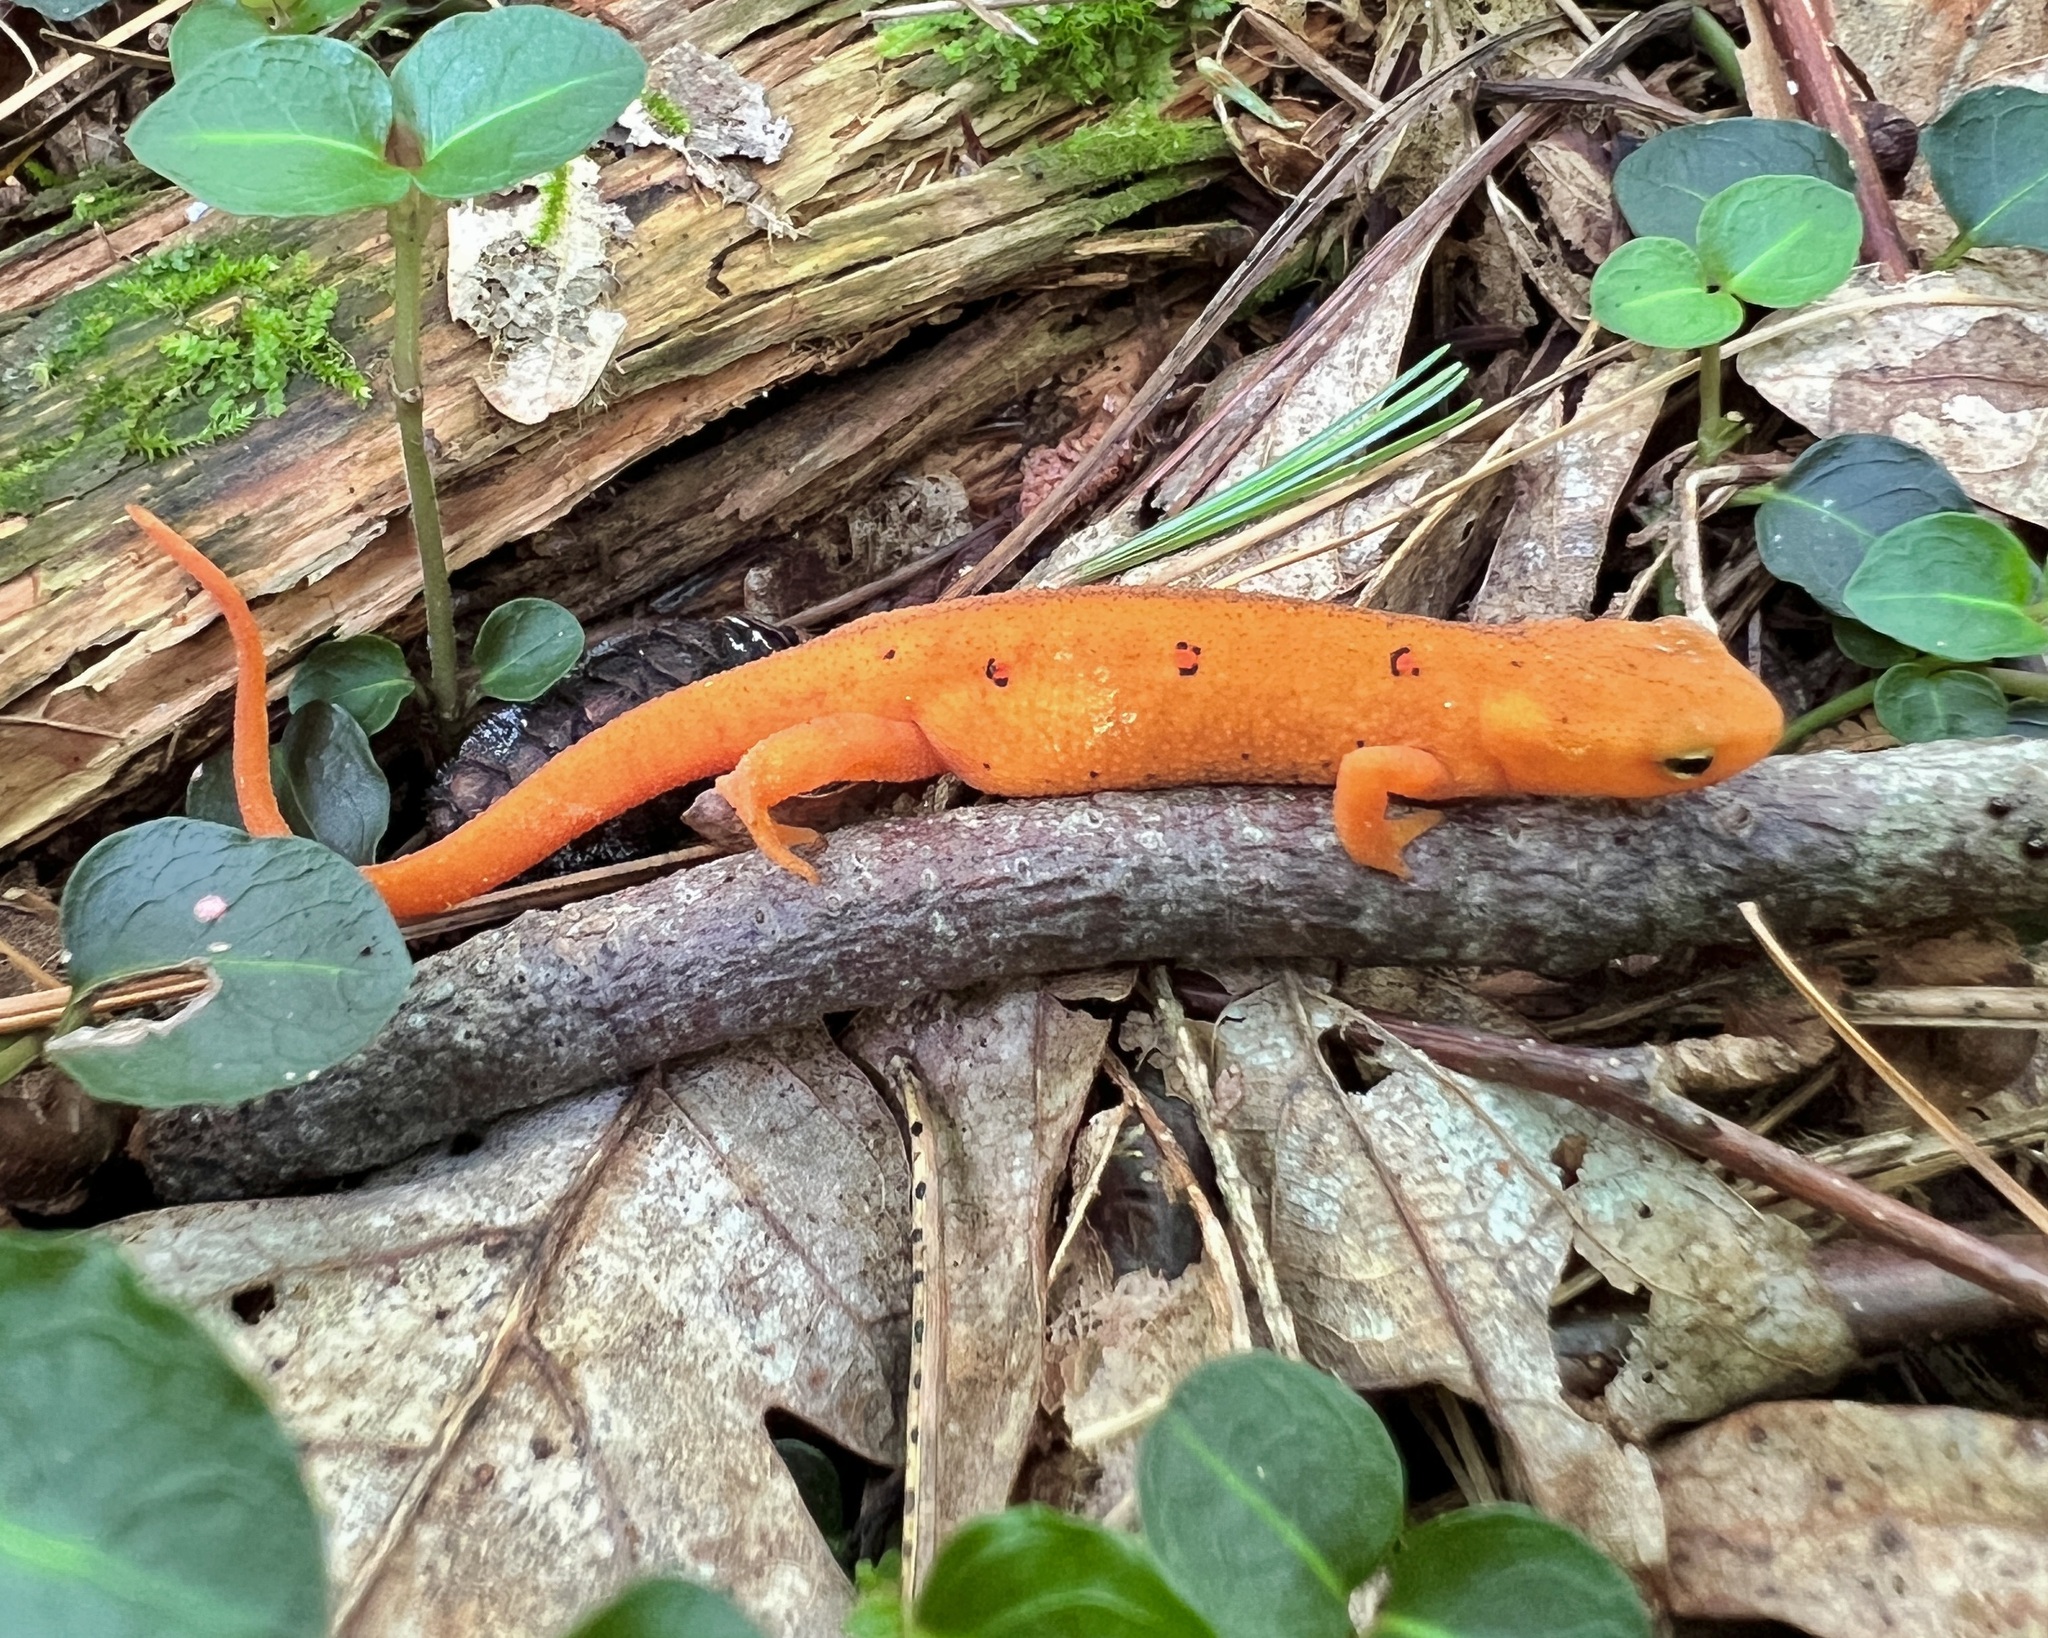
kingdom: Animalia
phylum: Chordata
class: Amphibia
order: Caudata
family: Salamandridae
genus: Notophthalmus
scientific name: Notophthalmus viridescens
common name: Eastern newt
